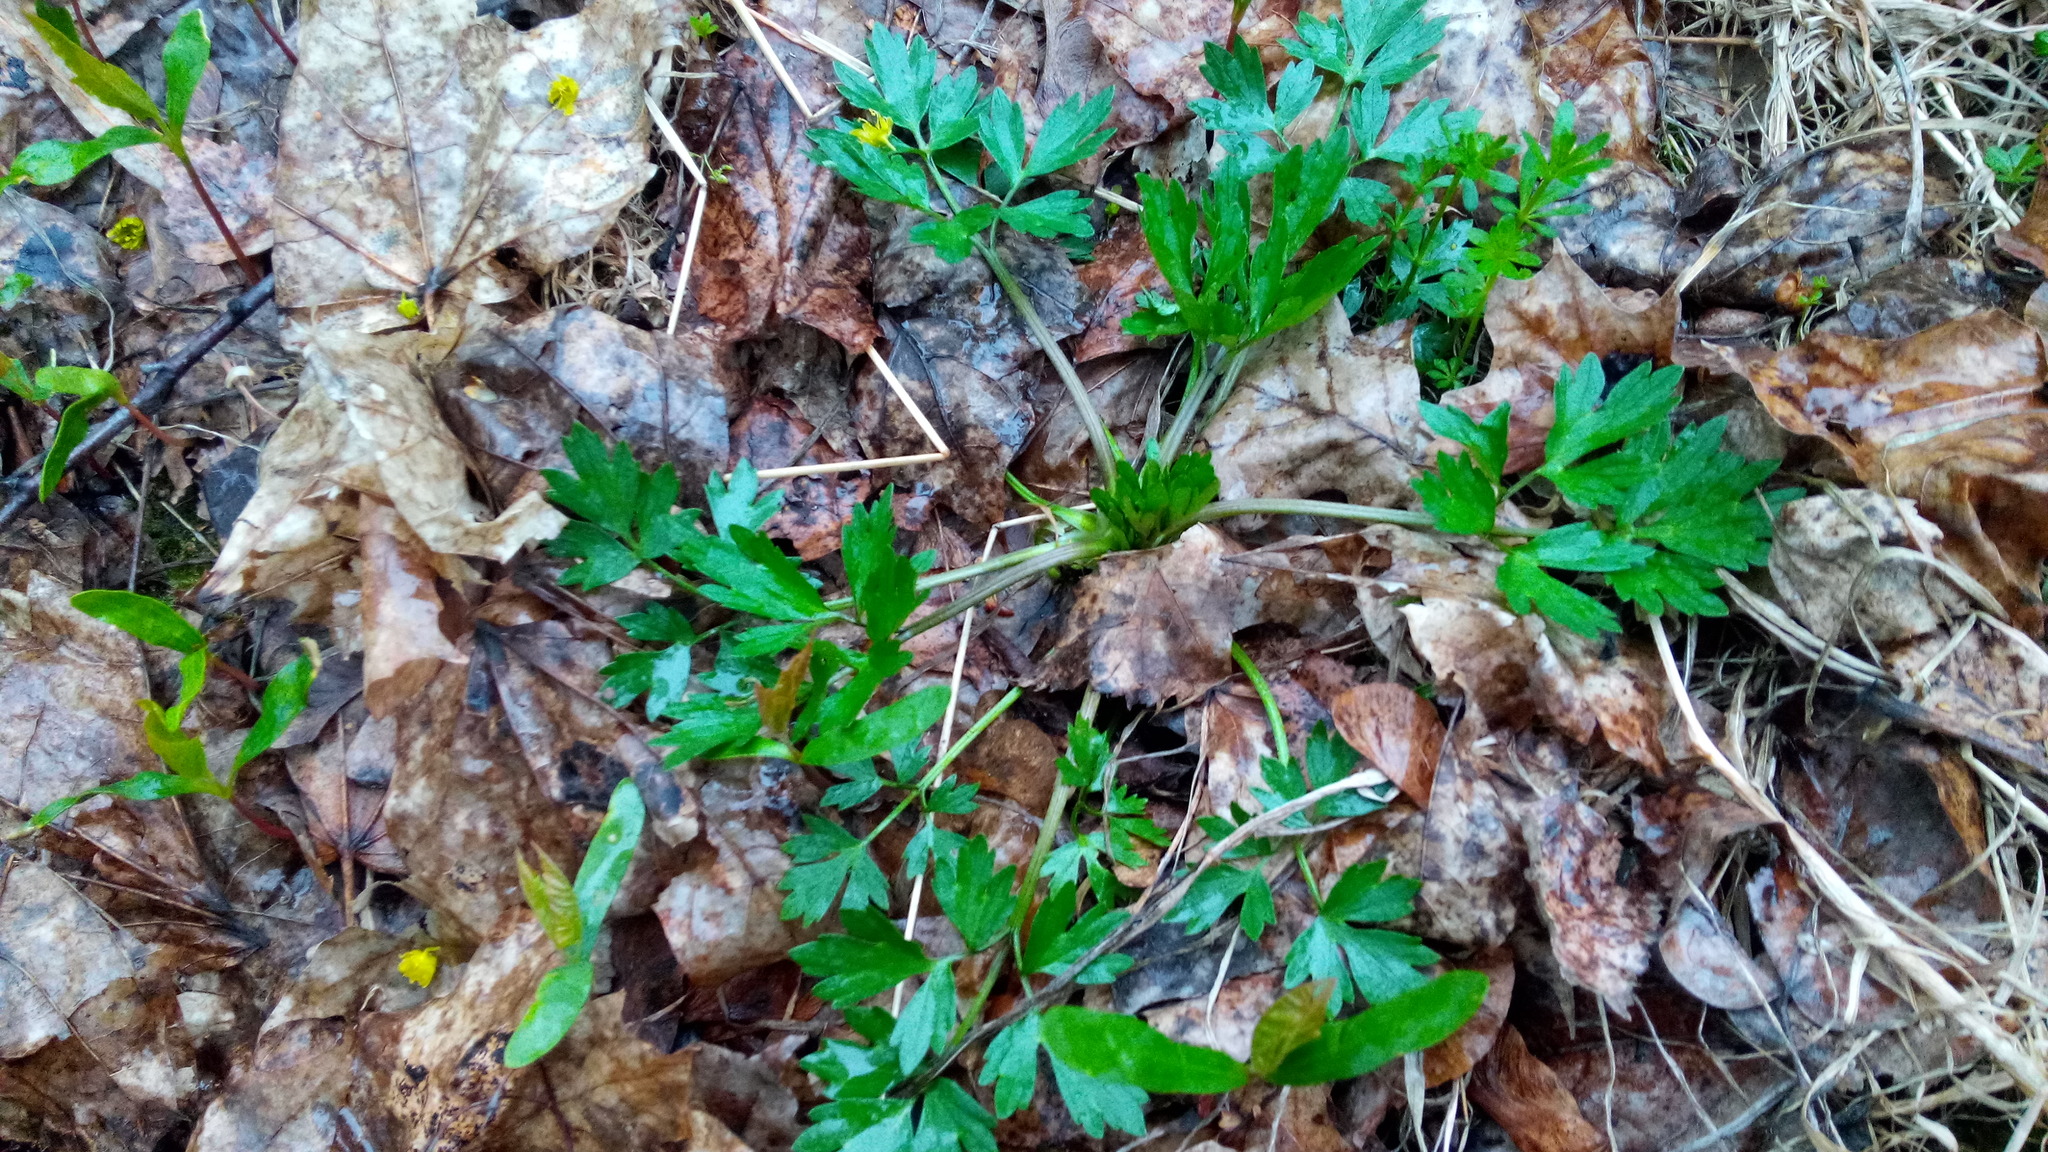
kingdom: Plantae
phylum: Tracheophyta
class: Magnoliopsida
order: Ranunculales
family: Ranunculaceae
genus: Ranunculus
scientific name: Ranunculus repens
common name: Creeping buttercup
